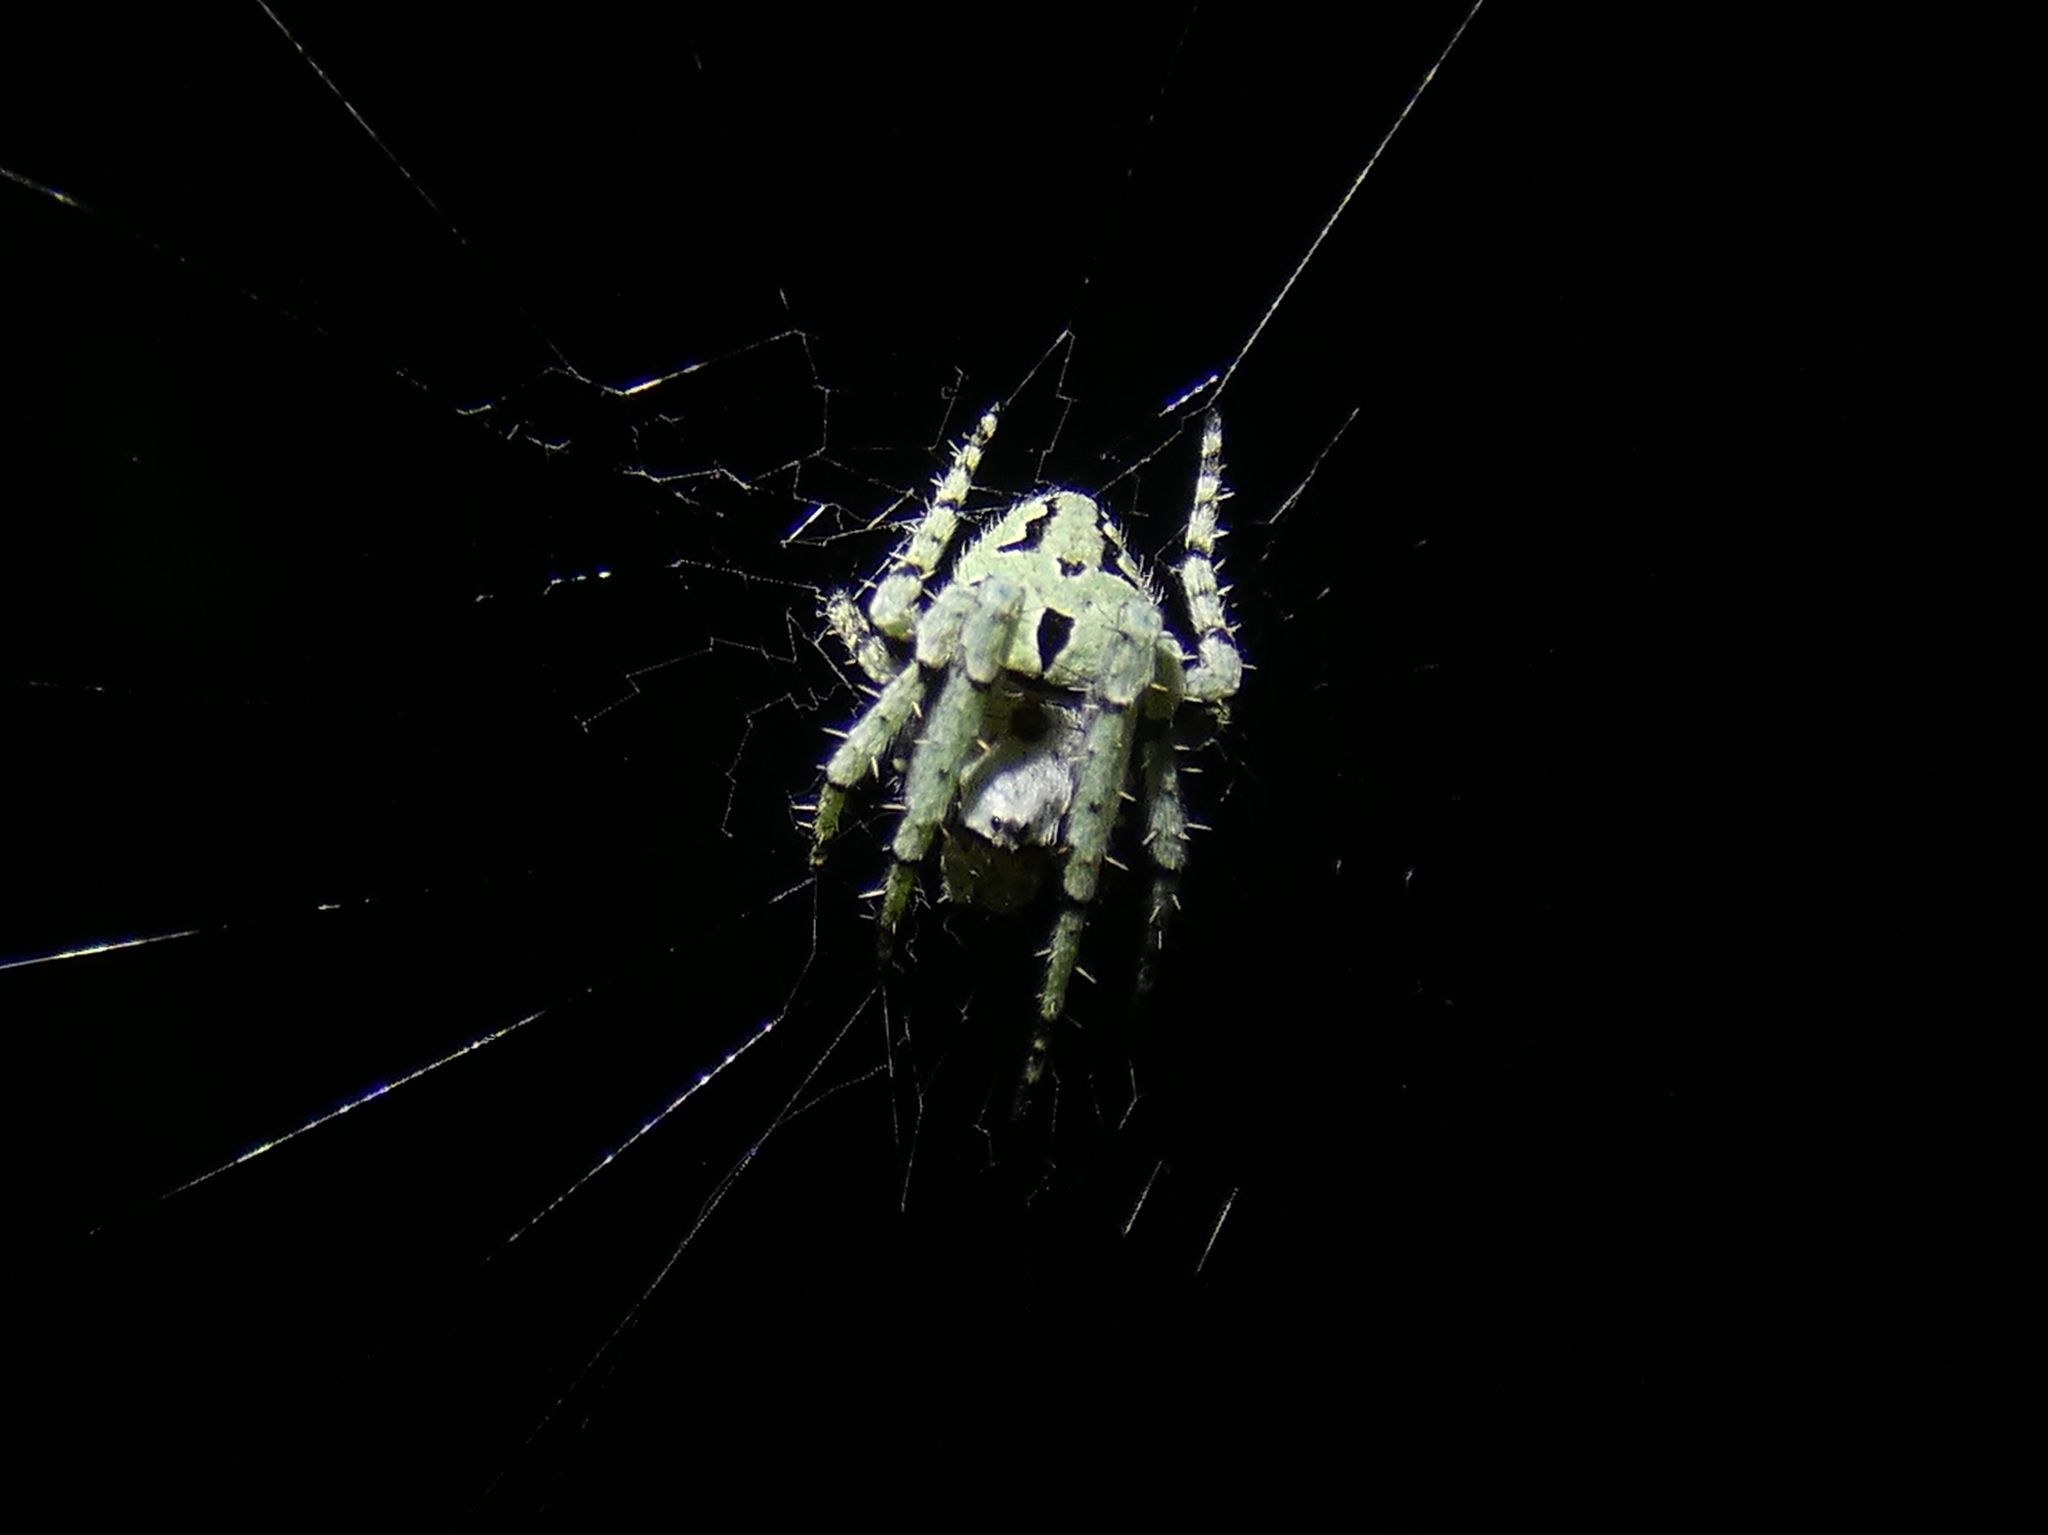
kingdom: Animalia
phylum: Arthropoda
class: Arachnida
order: Araneae
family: Araneidae
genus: Eustala
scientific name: Eustala anastera
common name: Orb weavers
